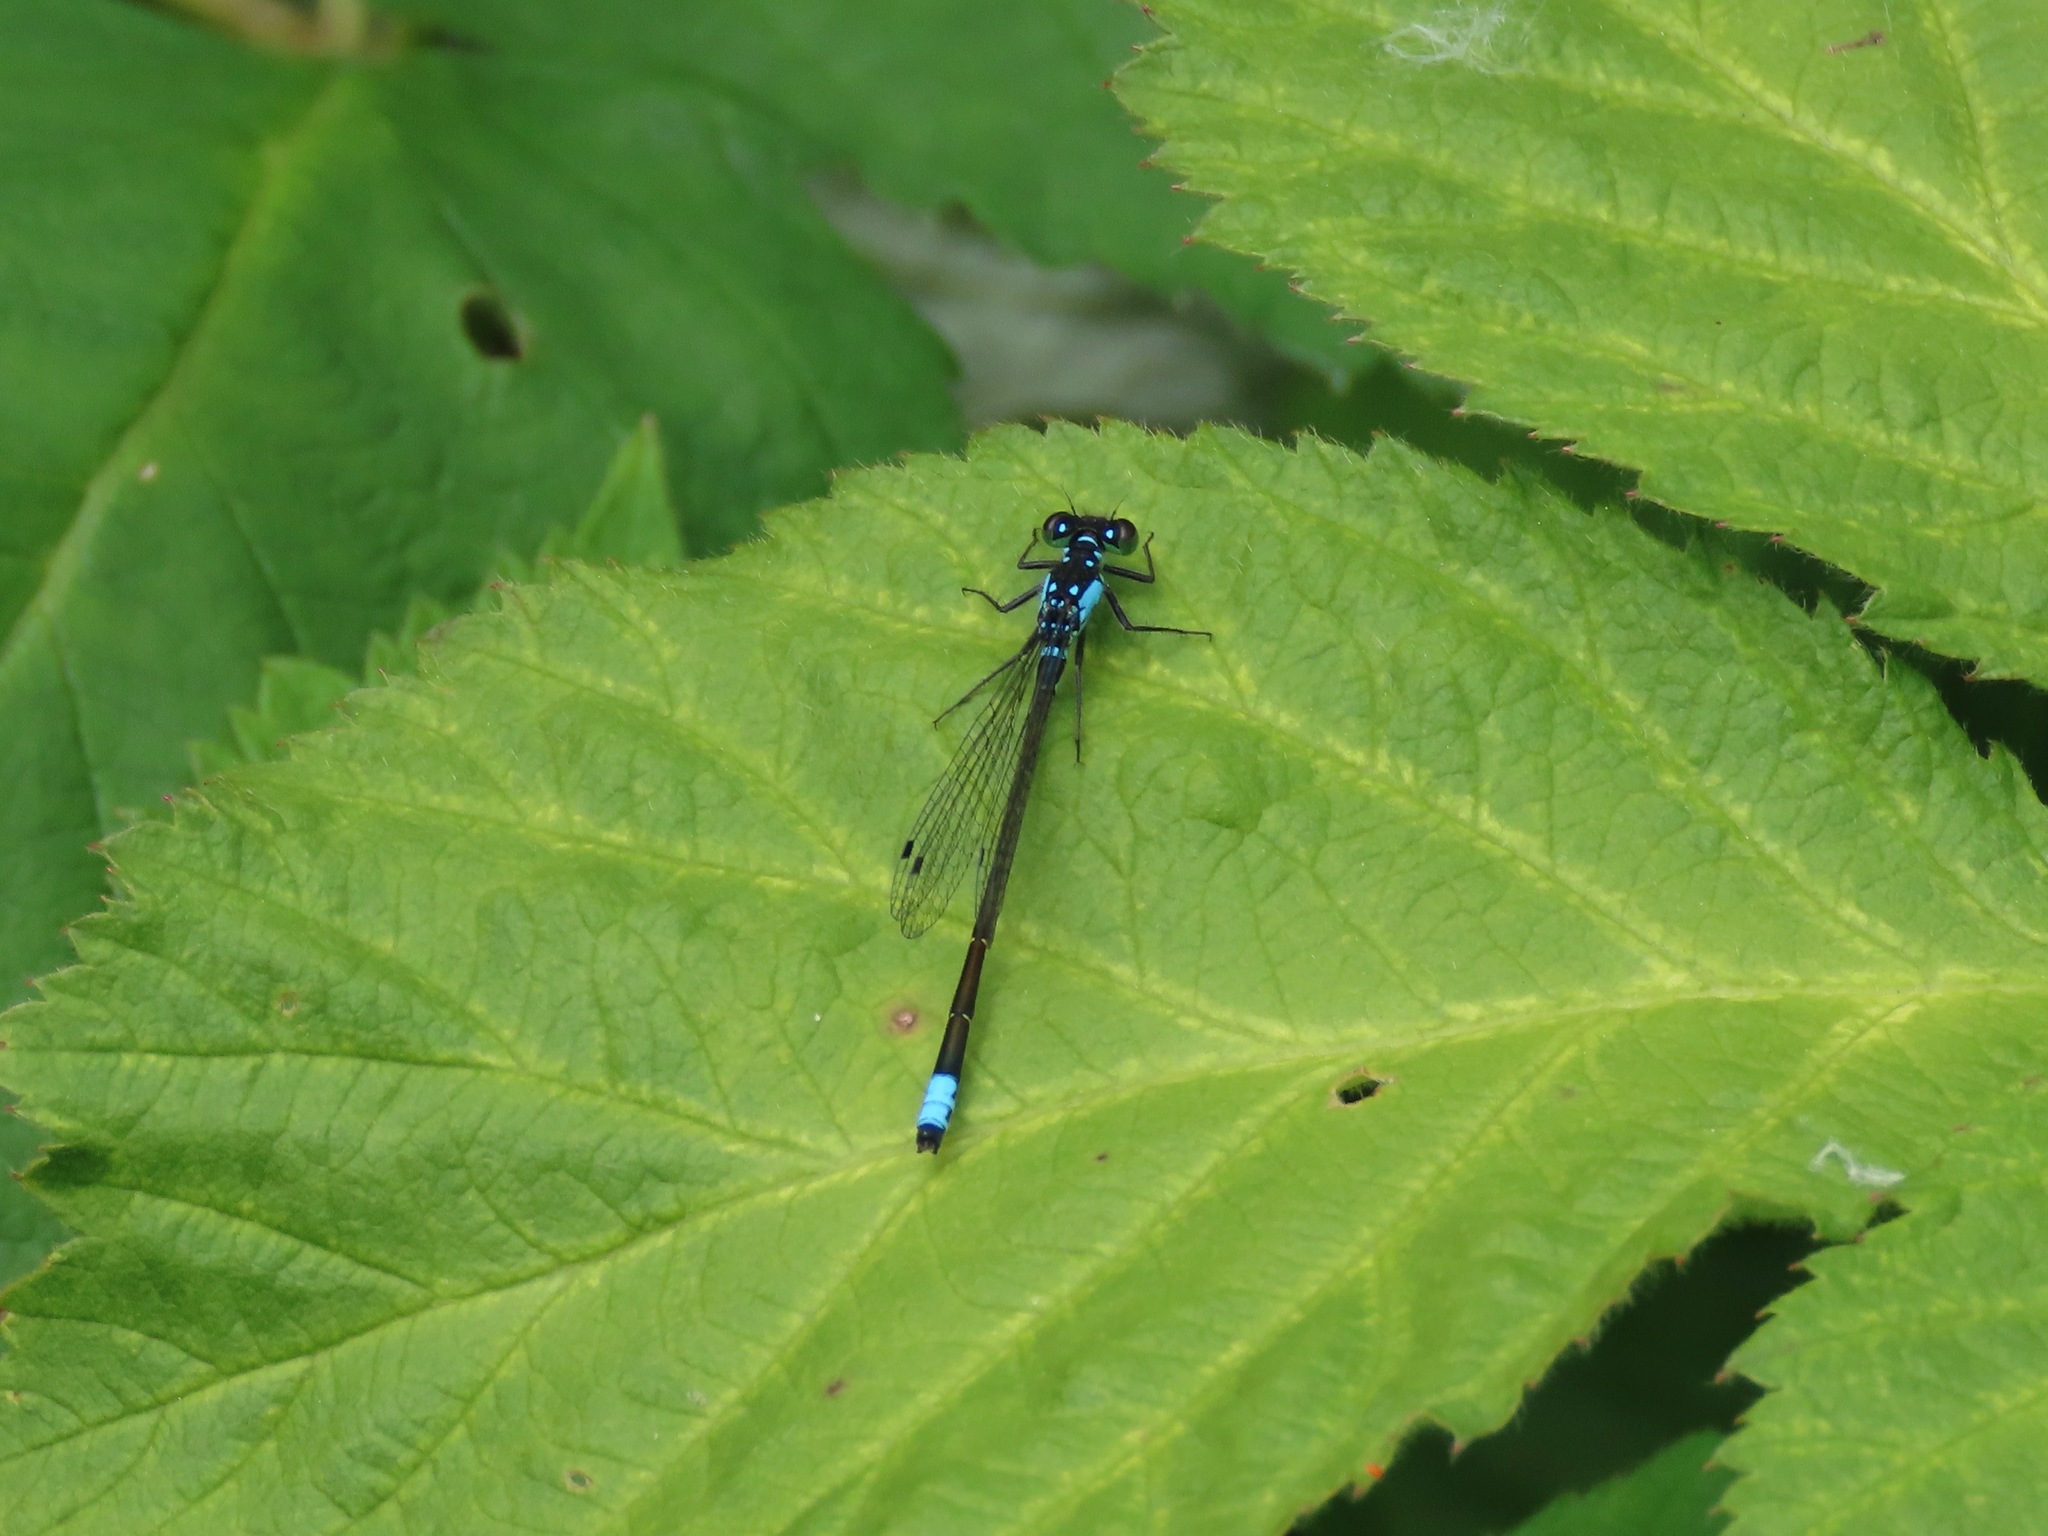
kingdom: Animalia
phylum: Arthropoda
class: Insecta
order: Odonata
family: Coenagrionidae
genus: Ischnura
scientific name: Ischnura cervula
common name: Pacific forktail
